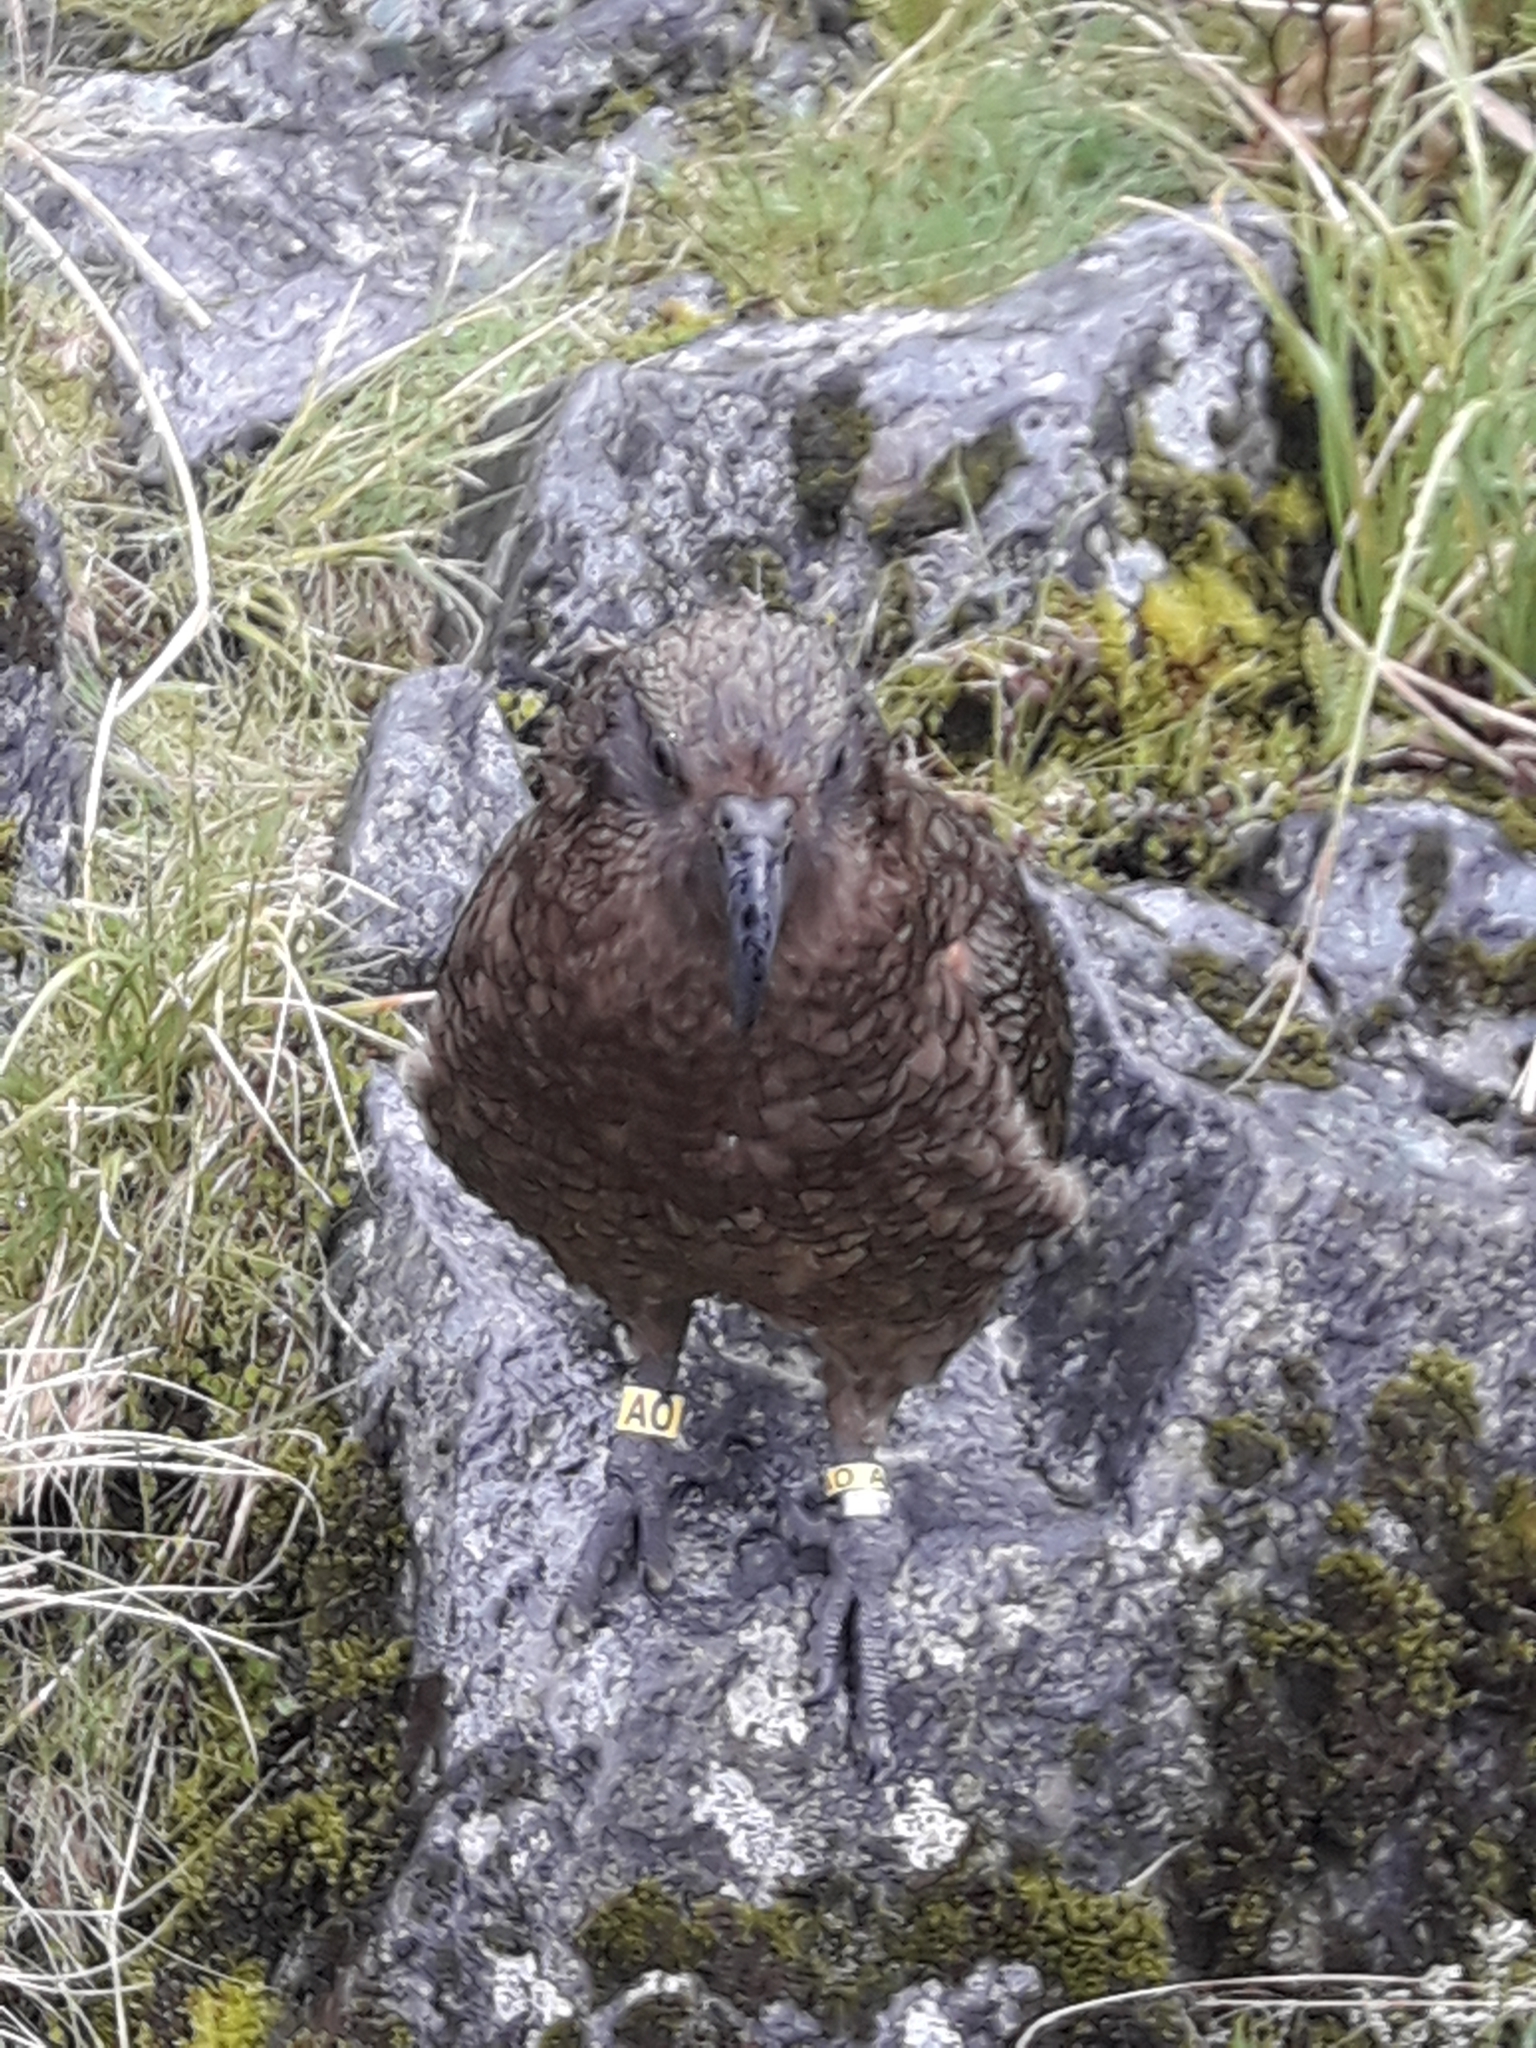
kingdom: Animalia
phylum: Chordata
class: Aves
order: Psittaciformes
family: Psittacidae
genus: Nestor
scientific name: Nestor notabilis
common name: Kea
